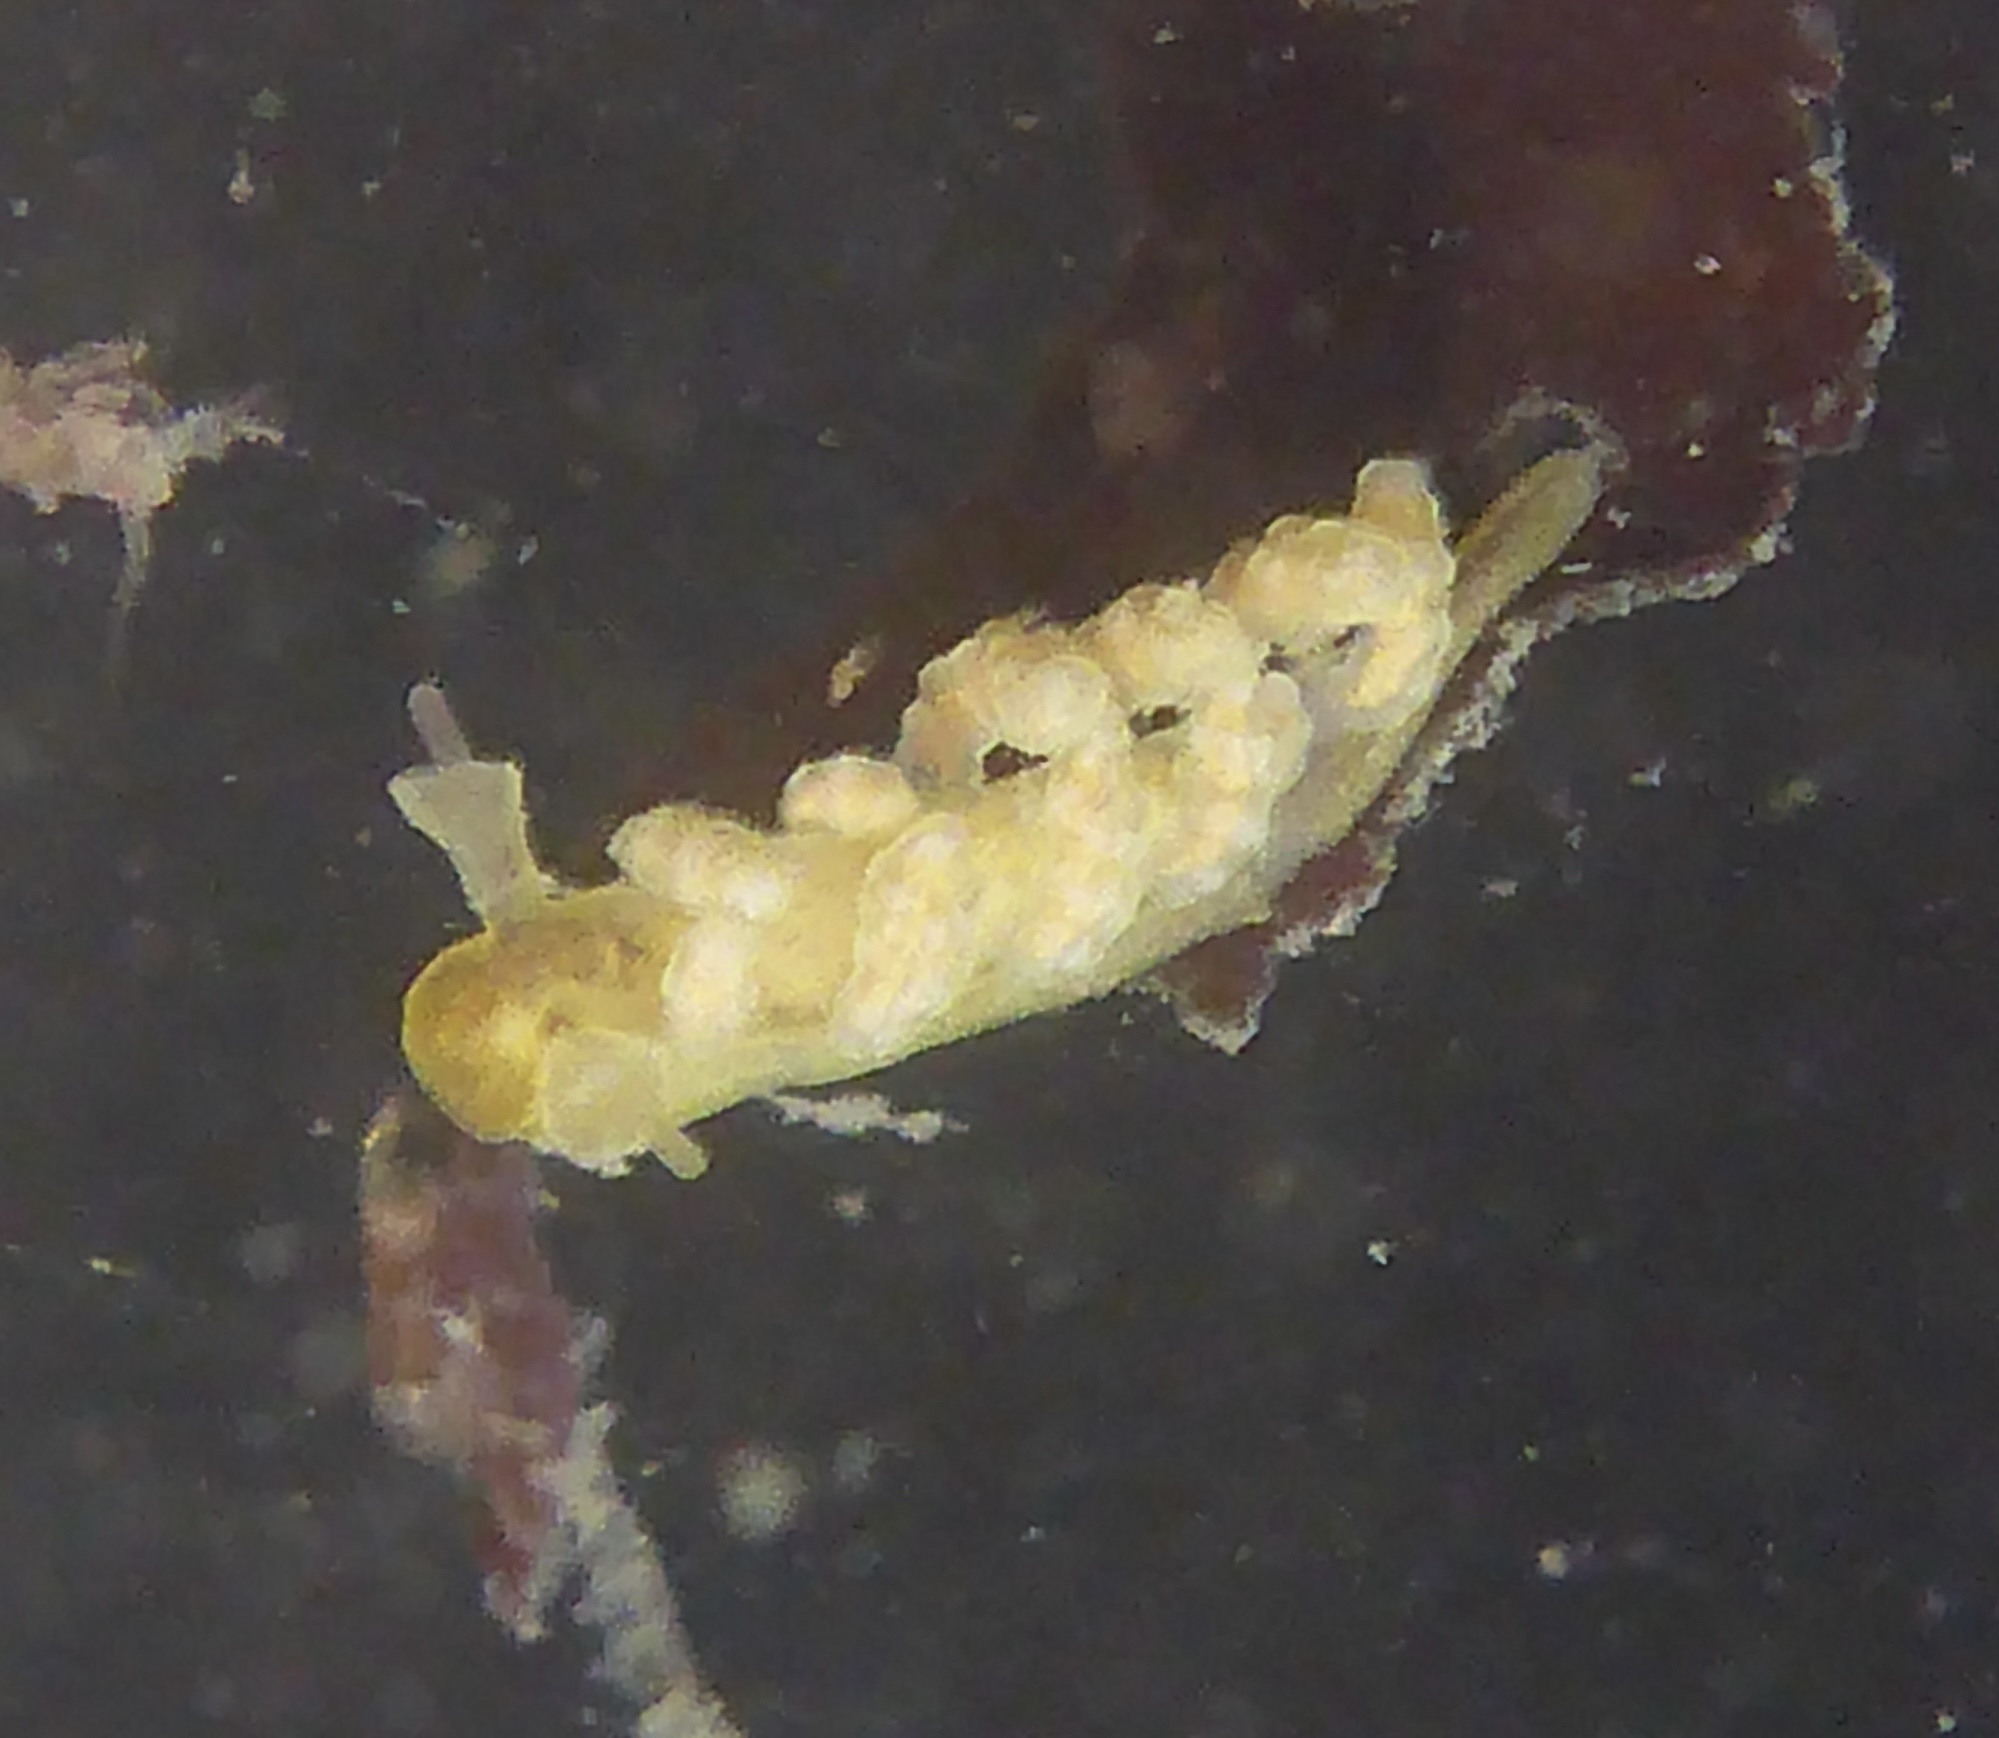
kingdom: Animalia
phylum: Mollusca
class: Gastropoda
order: Nudibranchia
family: Dotidae
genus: Doto
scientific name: Doto columbiana
